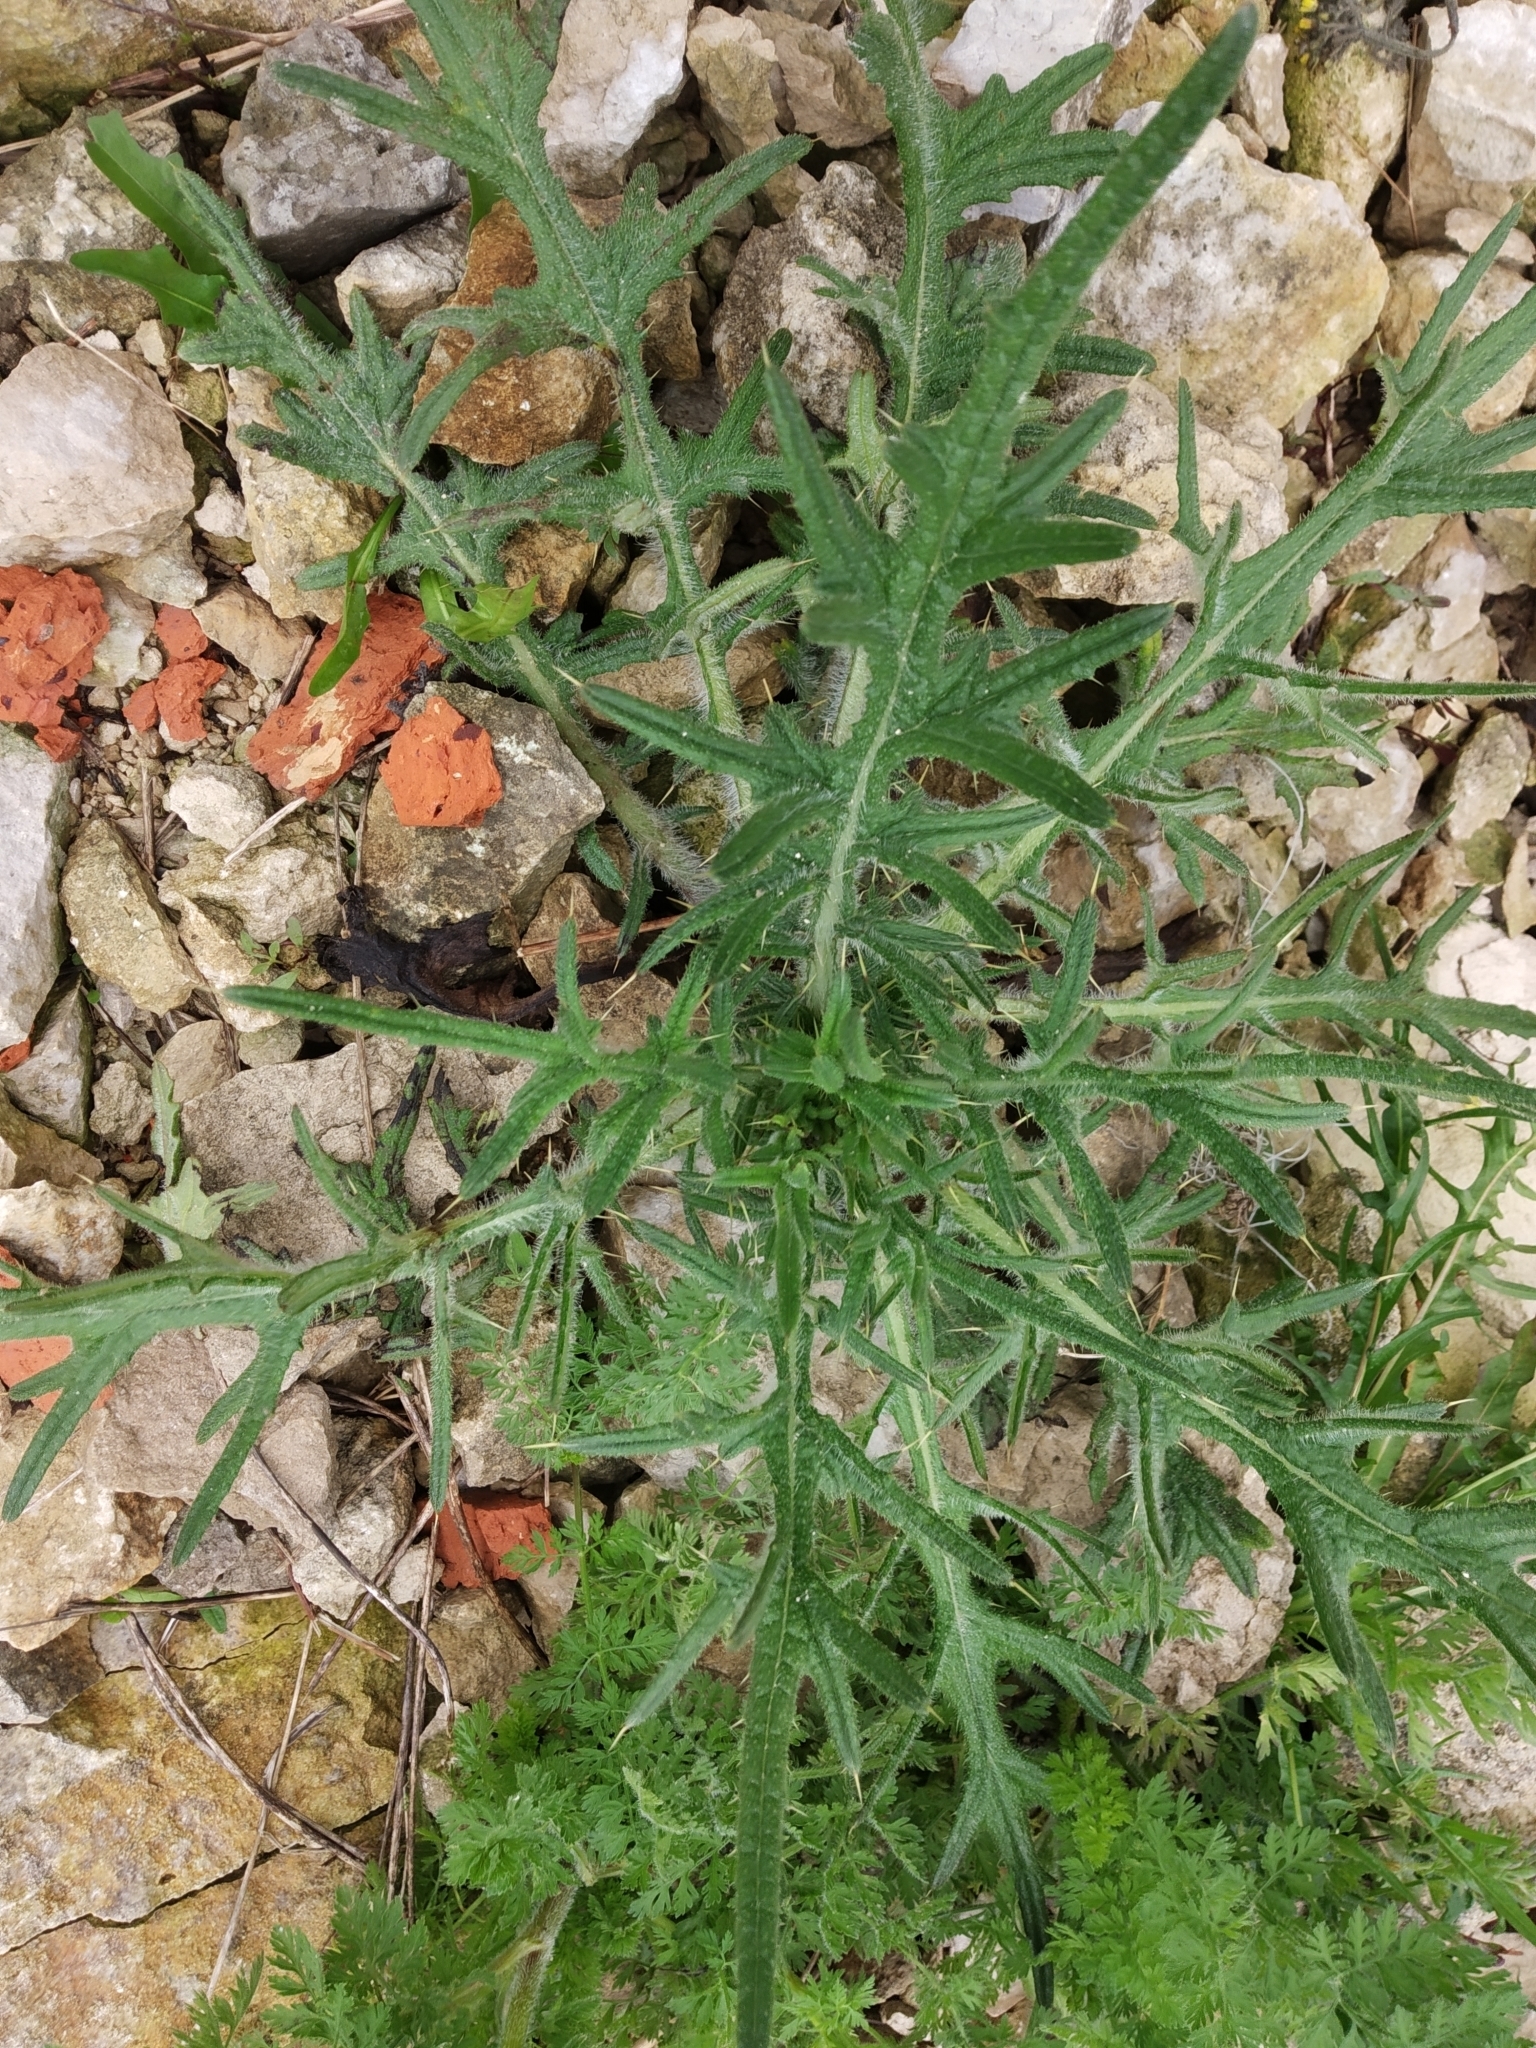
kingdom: Plantae
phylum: Tracheophyta
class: Magnoliopsida
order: Asterales
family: Asteraceae
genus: Cirsium
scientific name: Cirsium vulgare
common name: Bull thistle
